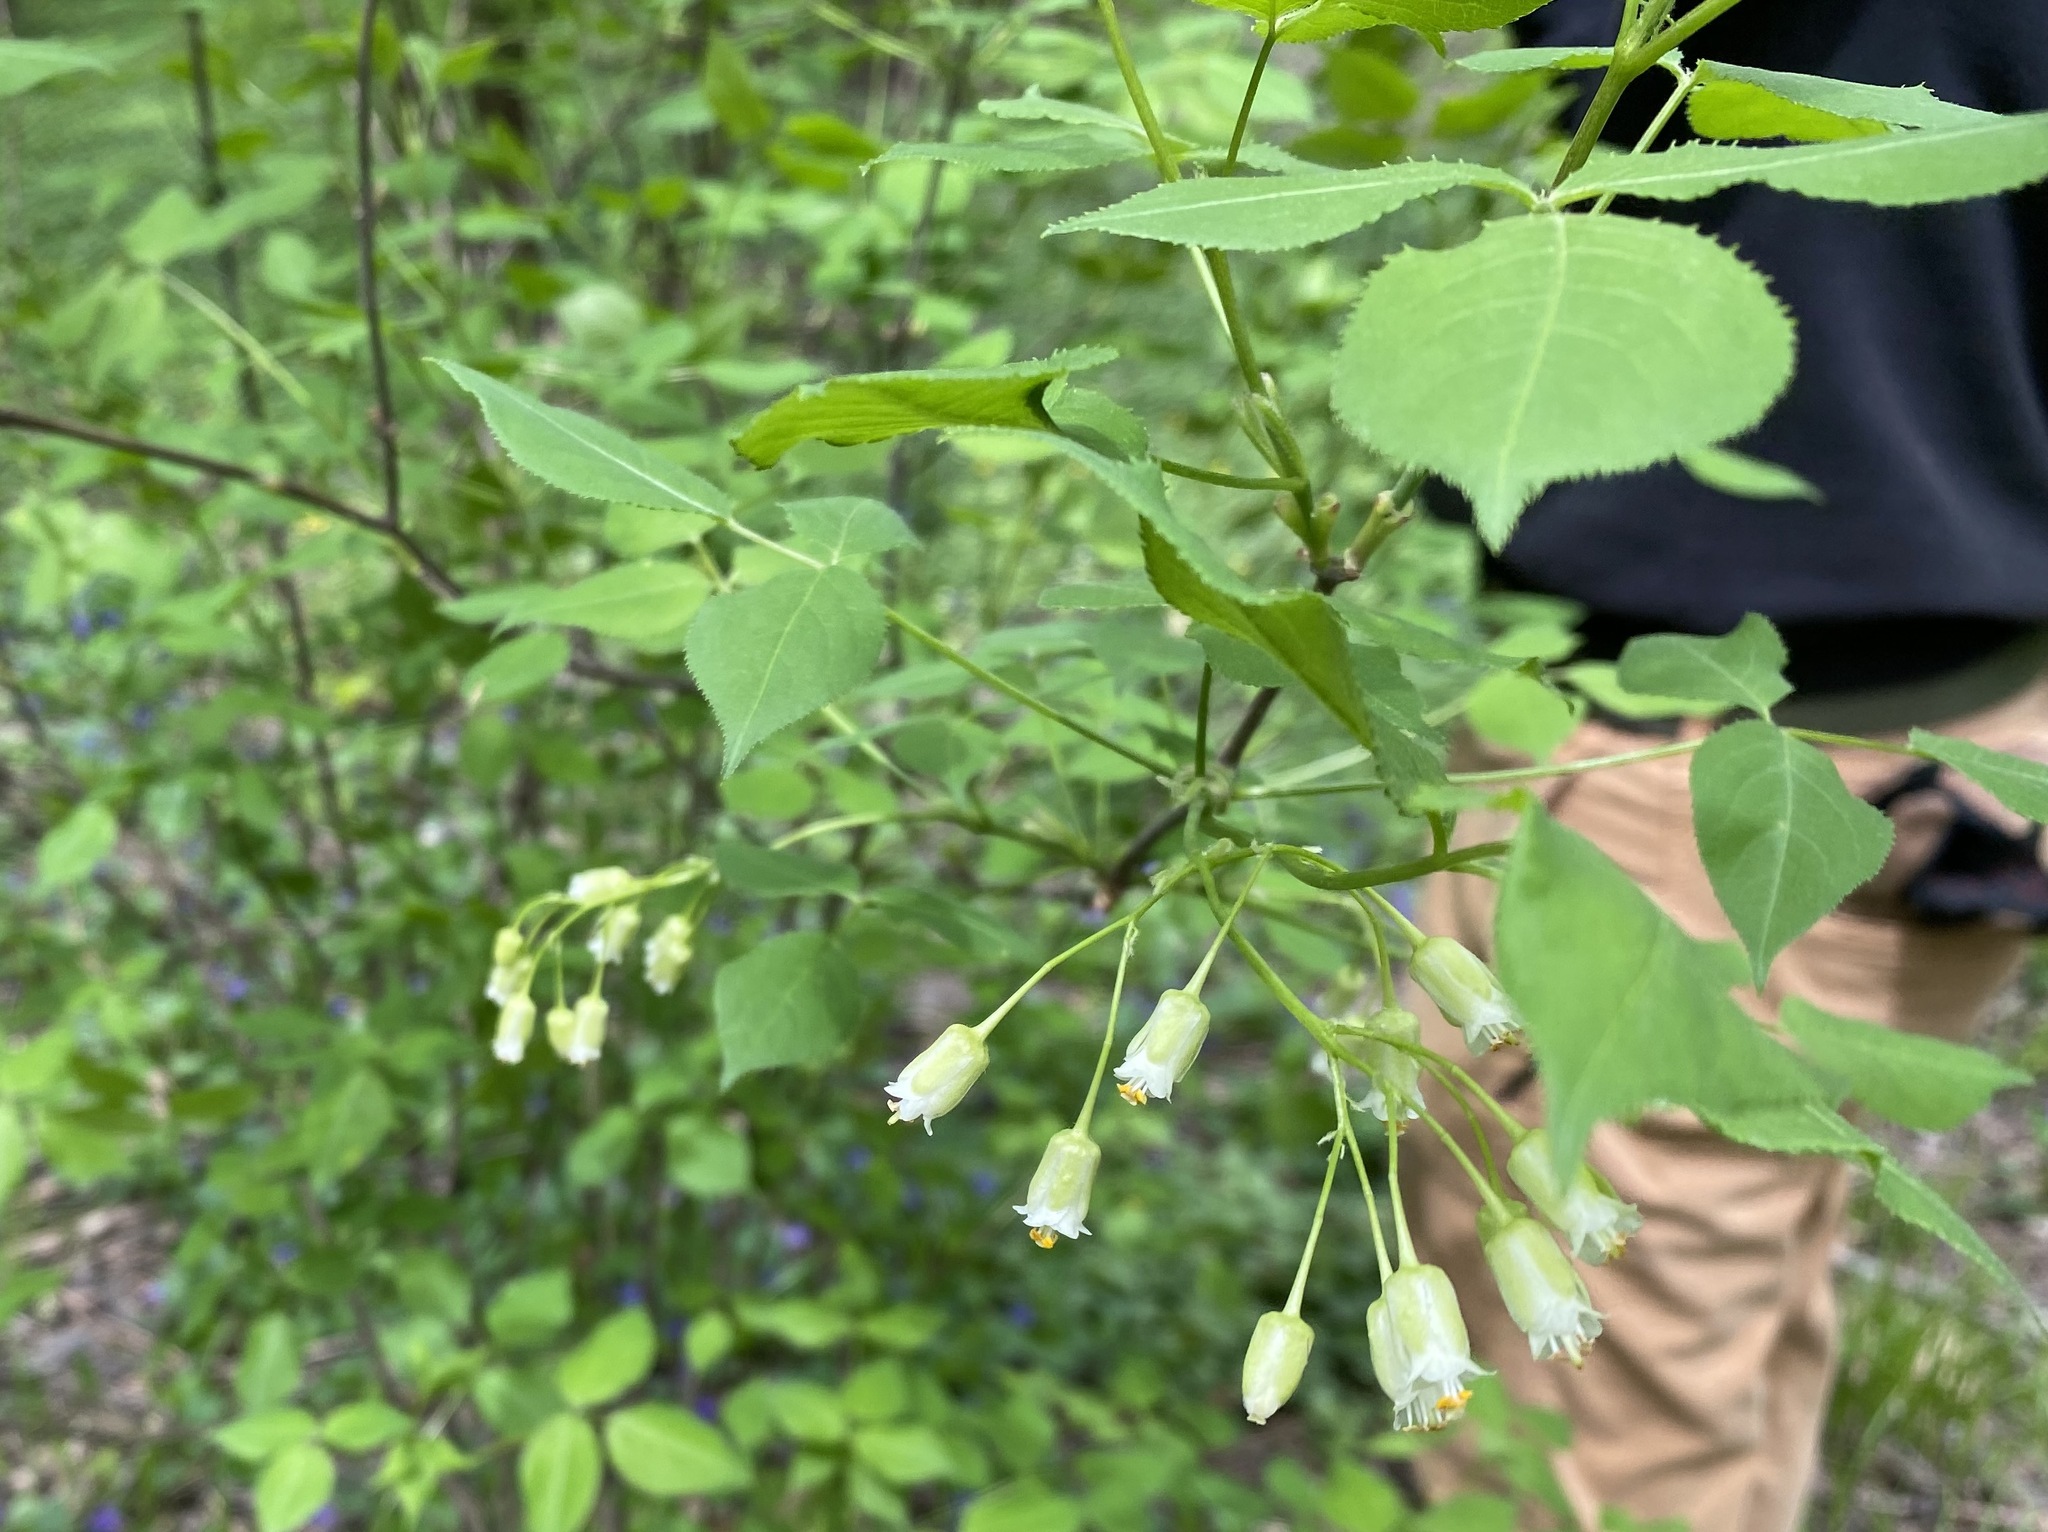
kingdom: Plantae
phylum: Tracheophyta
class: Magnoliopsida
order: Crossosomatales
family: Staphyleaceae
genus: Staphylea
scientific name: Staphylea trifolia
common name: American bladdernut
